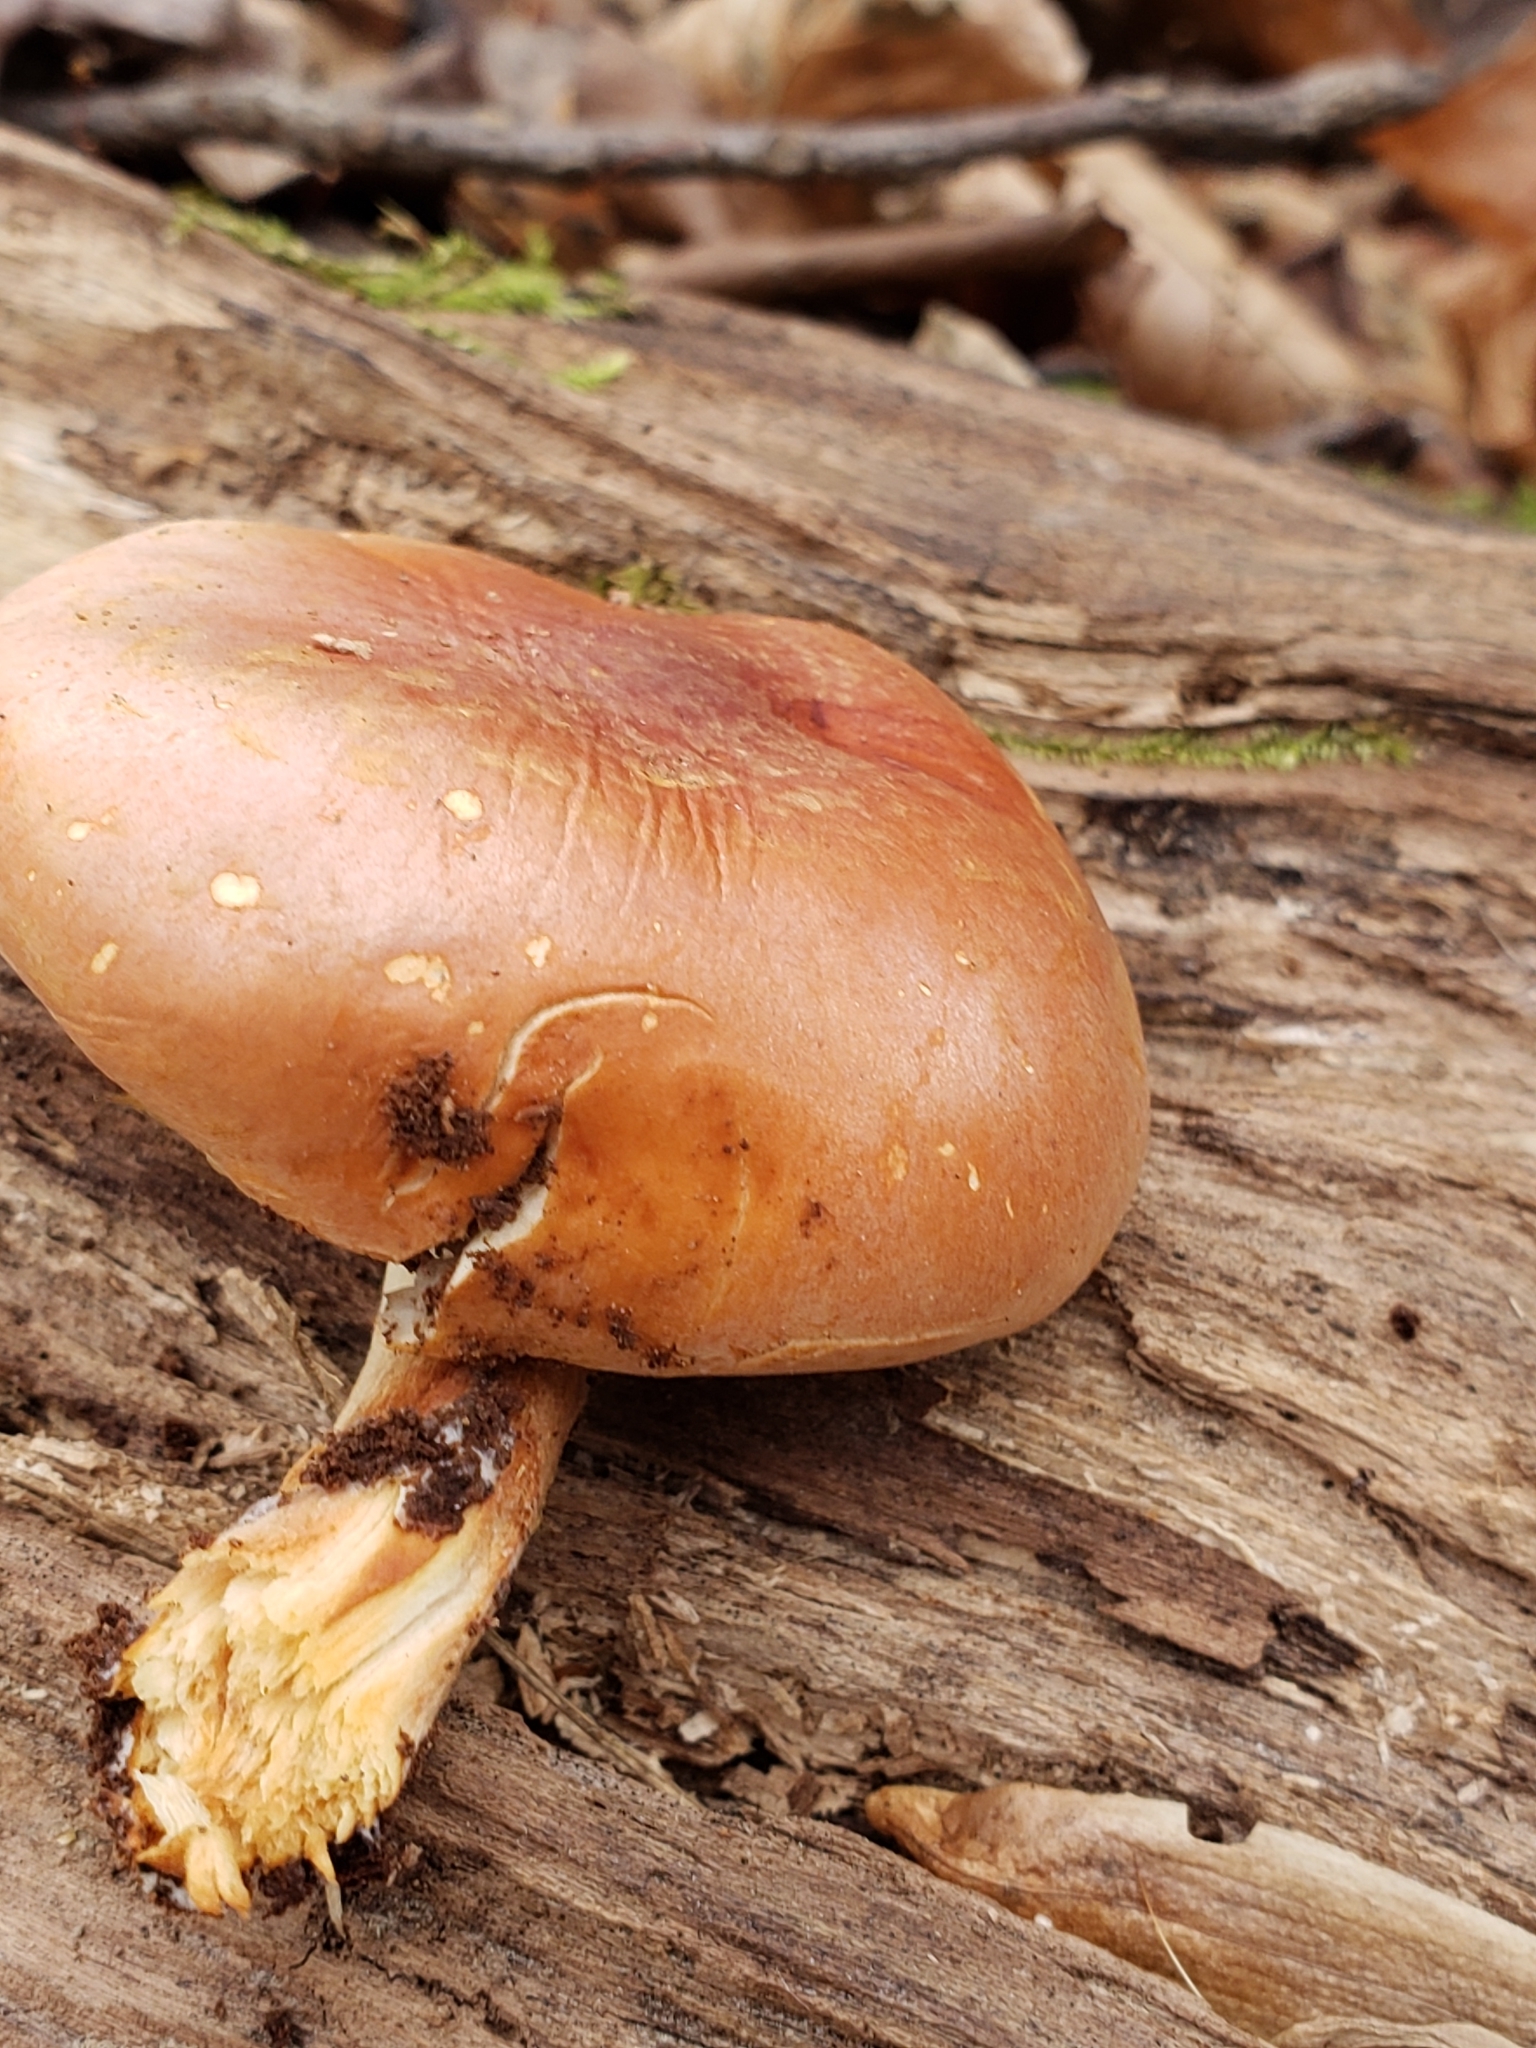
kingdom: Fungi
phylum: Basidiomycota
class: Agaricomycetes
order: Agaricales
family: Strophariaceae
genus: Hypholoma
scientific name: Hypholoma lateritium
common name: Brick caps
